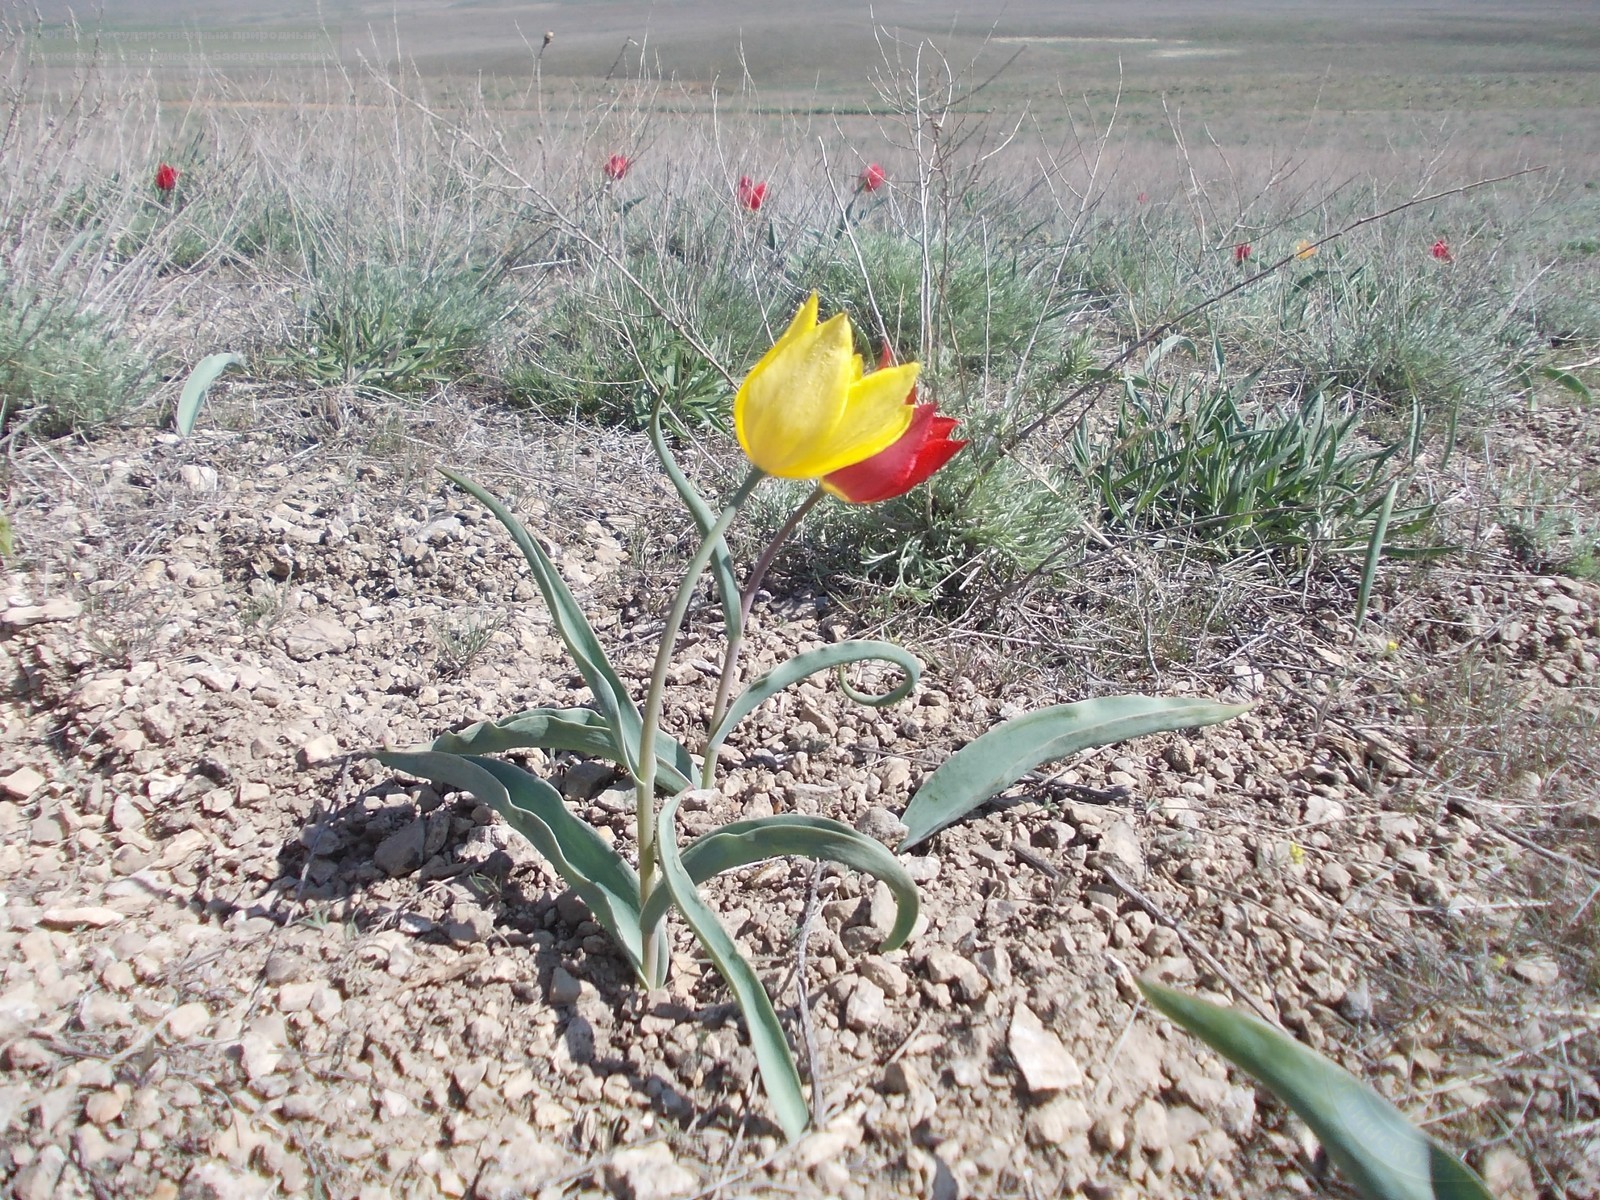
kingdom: Plantae
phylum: Tracheophyta
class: Liliopsida
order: Liliales
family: Liliaceae
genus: Tulipa
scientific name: Tulipa suaveolens
